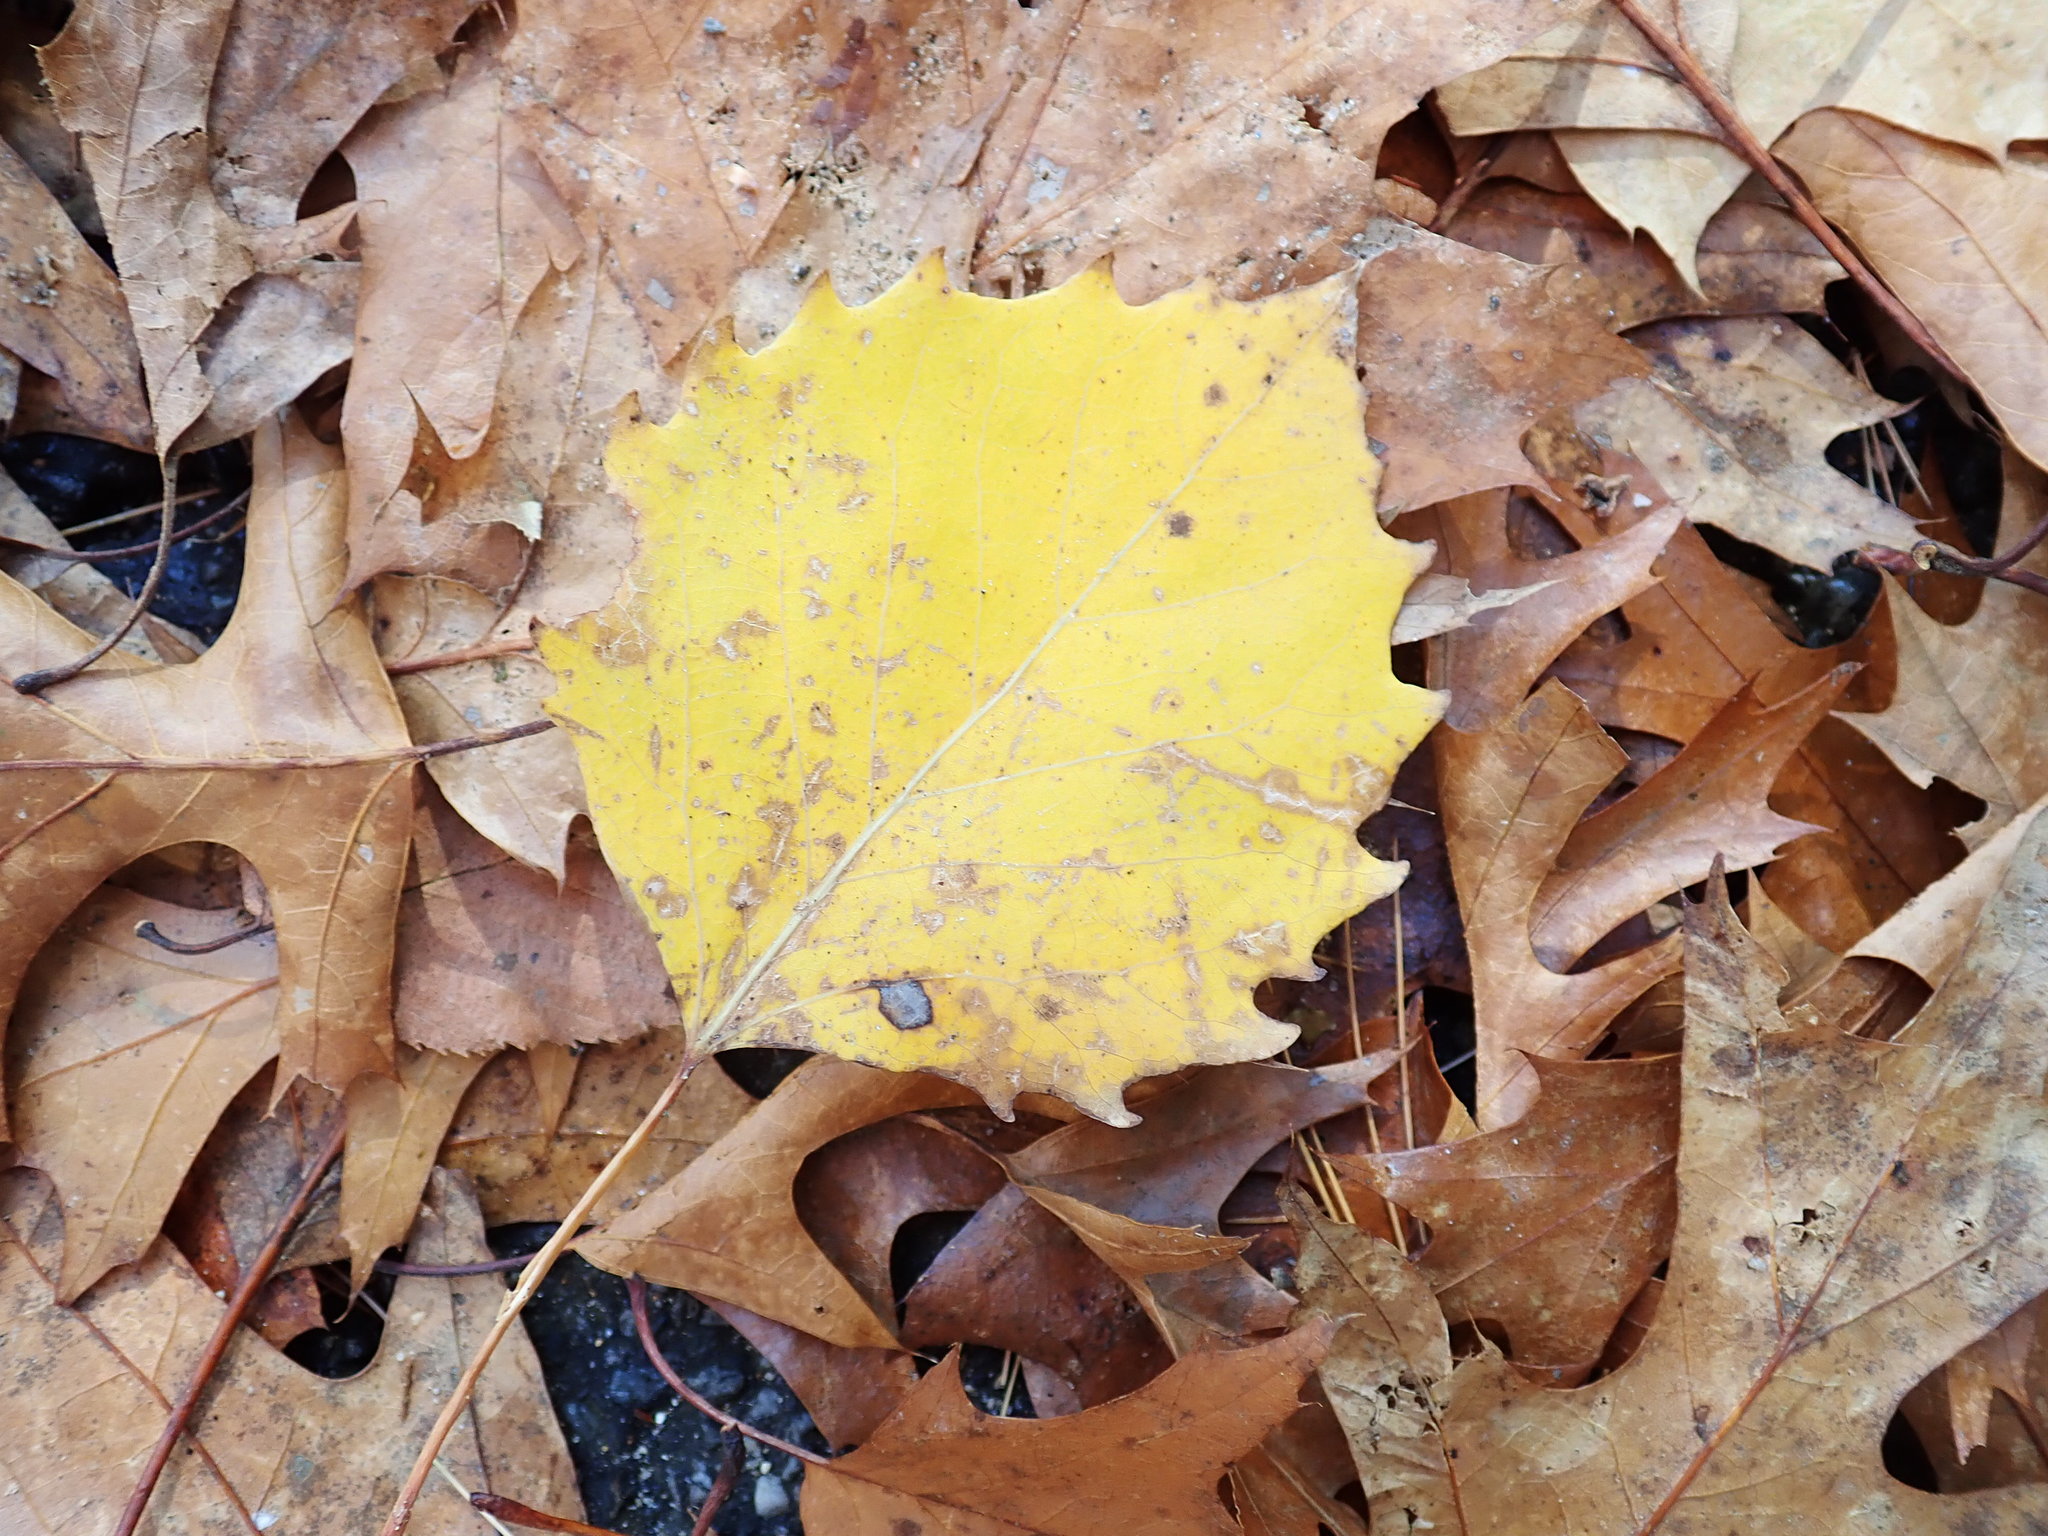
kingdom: Plantae
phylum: Tracheophyta
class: Magnoliopsida
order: Malpighiales
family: Salicaceae
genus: Populus
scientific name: Populus grandidentata
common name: Bigtooth aspen
